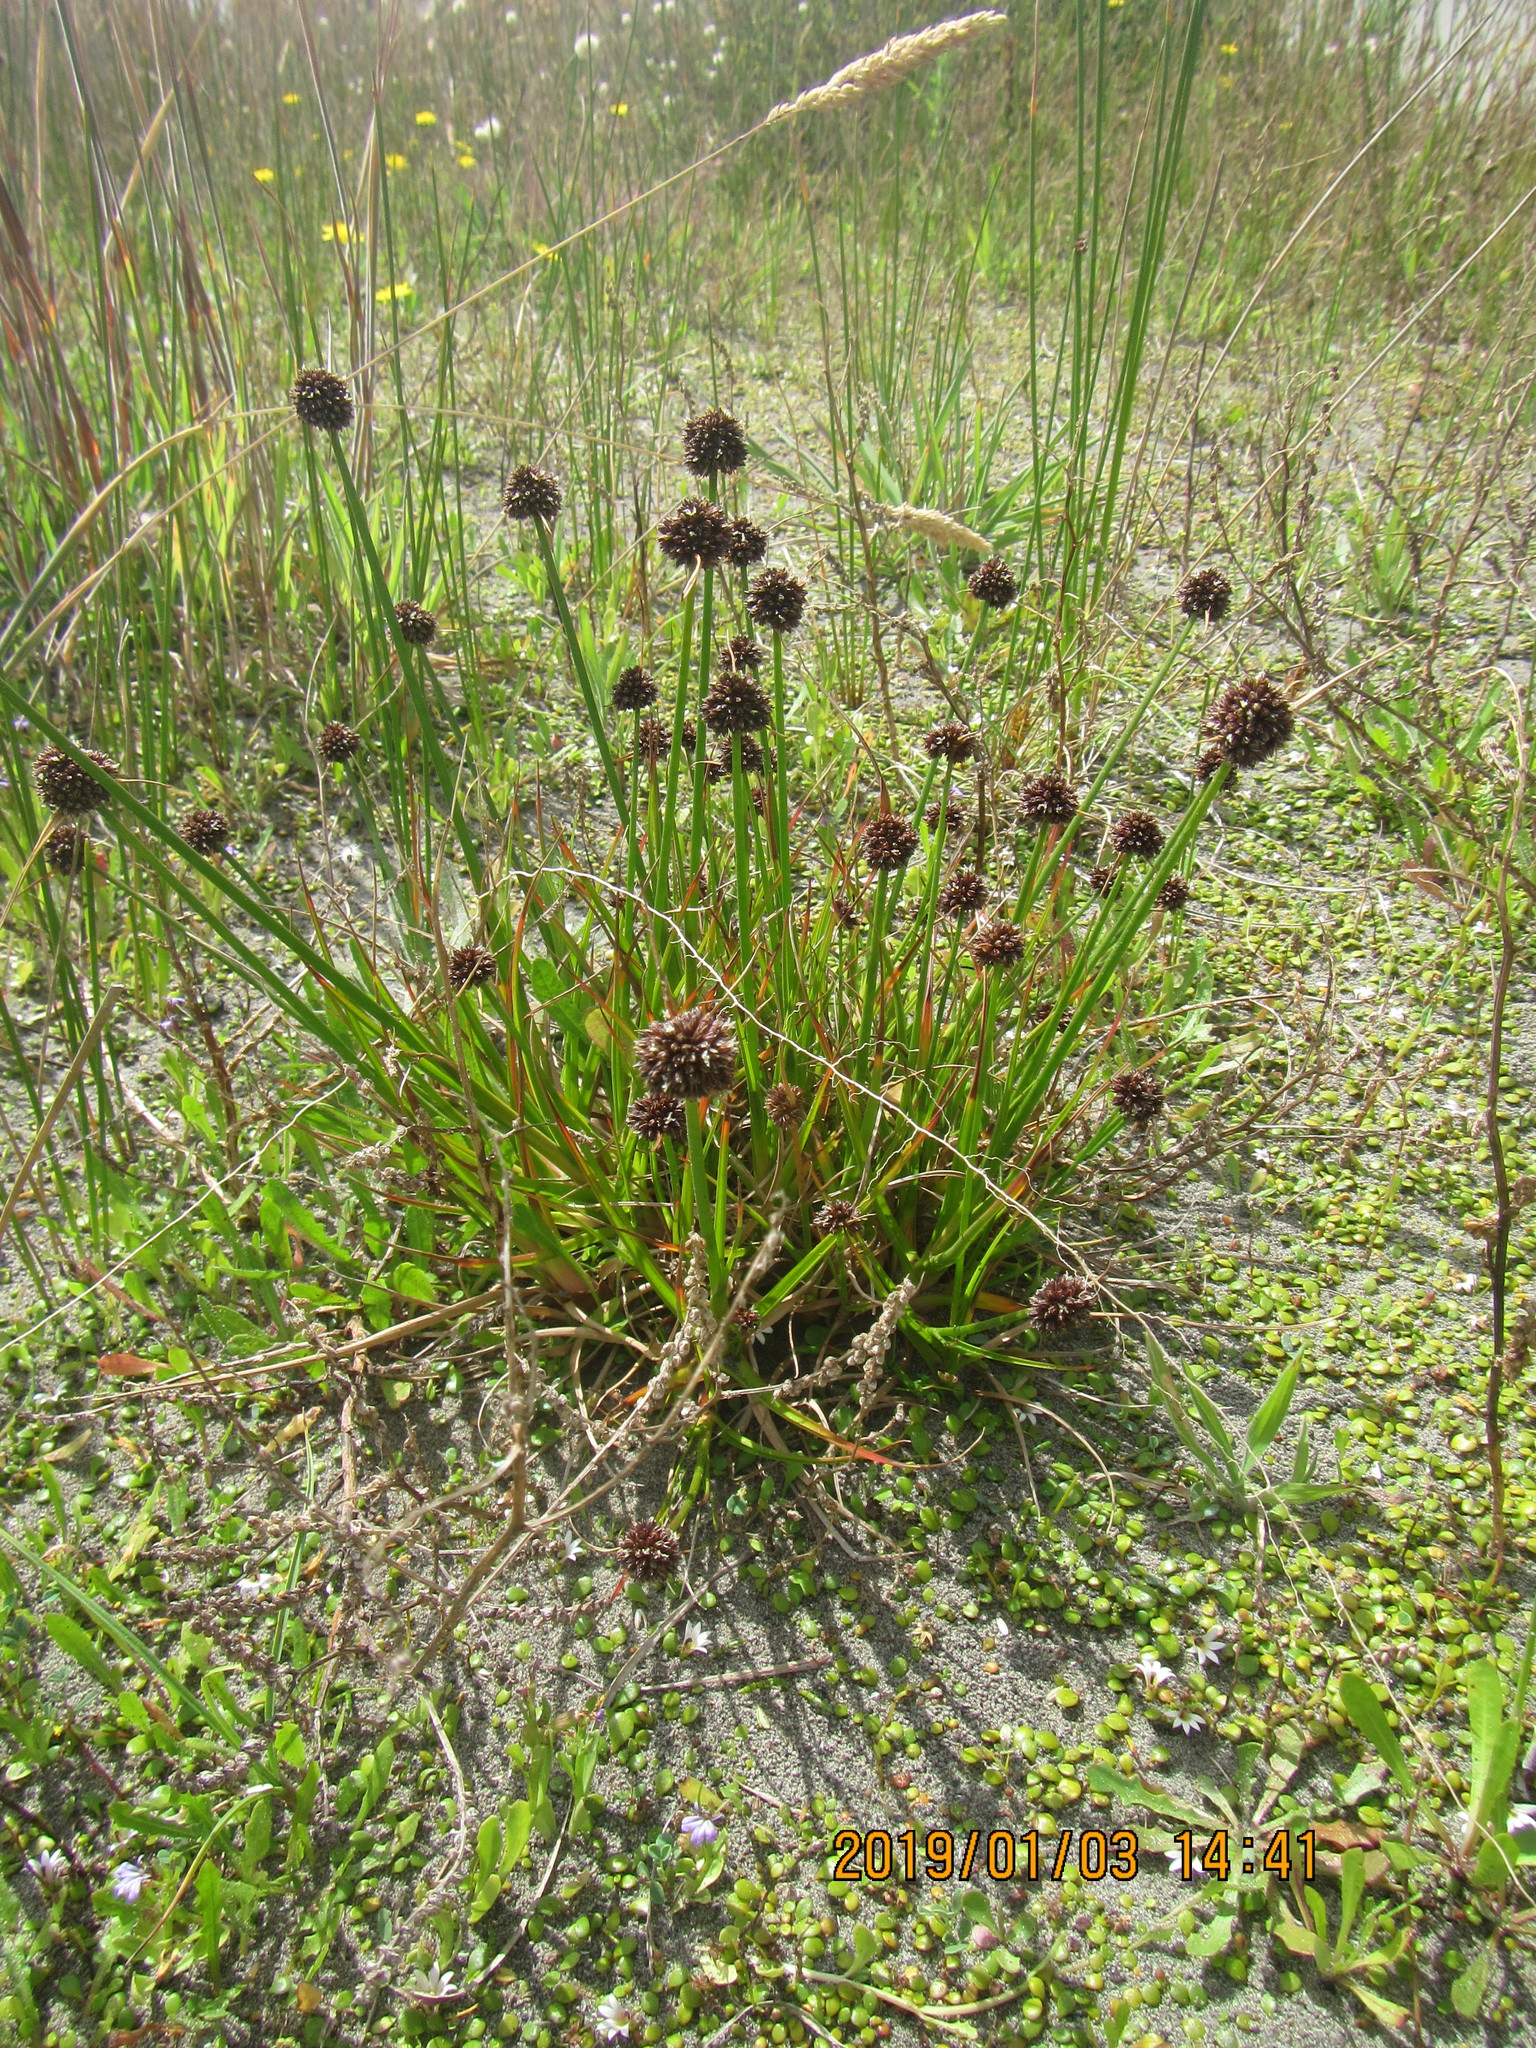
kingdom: Plantae
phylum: Tracheophyta
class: Liliopsida
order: Poales
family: Juncaceae
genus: Juncus
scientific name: Juncus caespiticius
